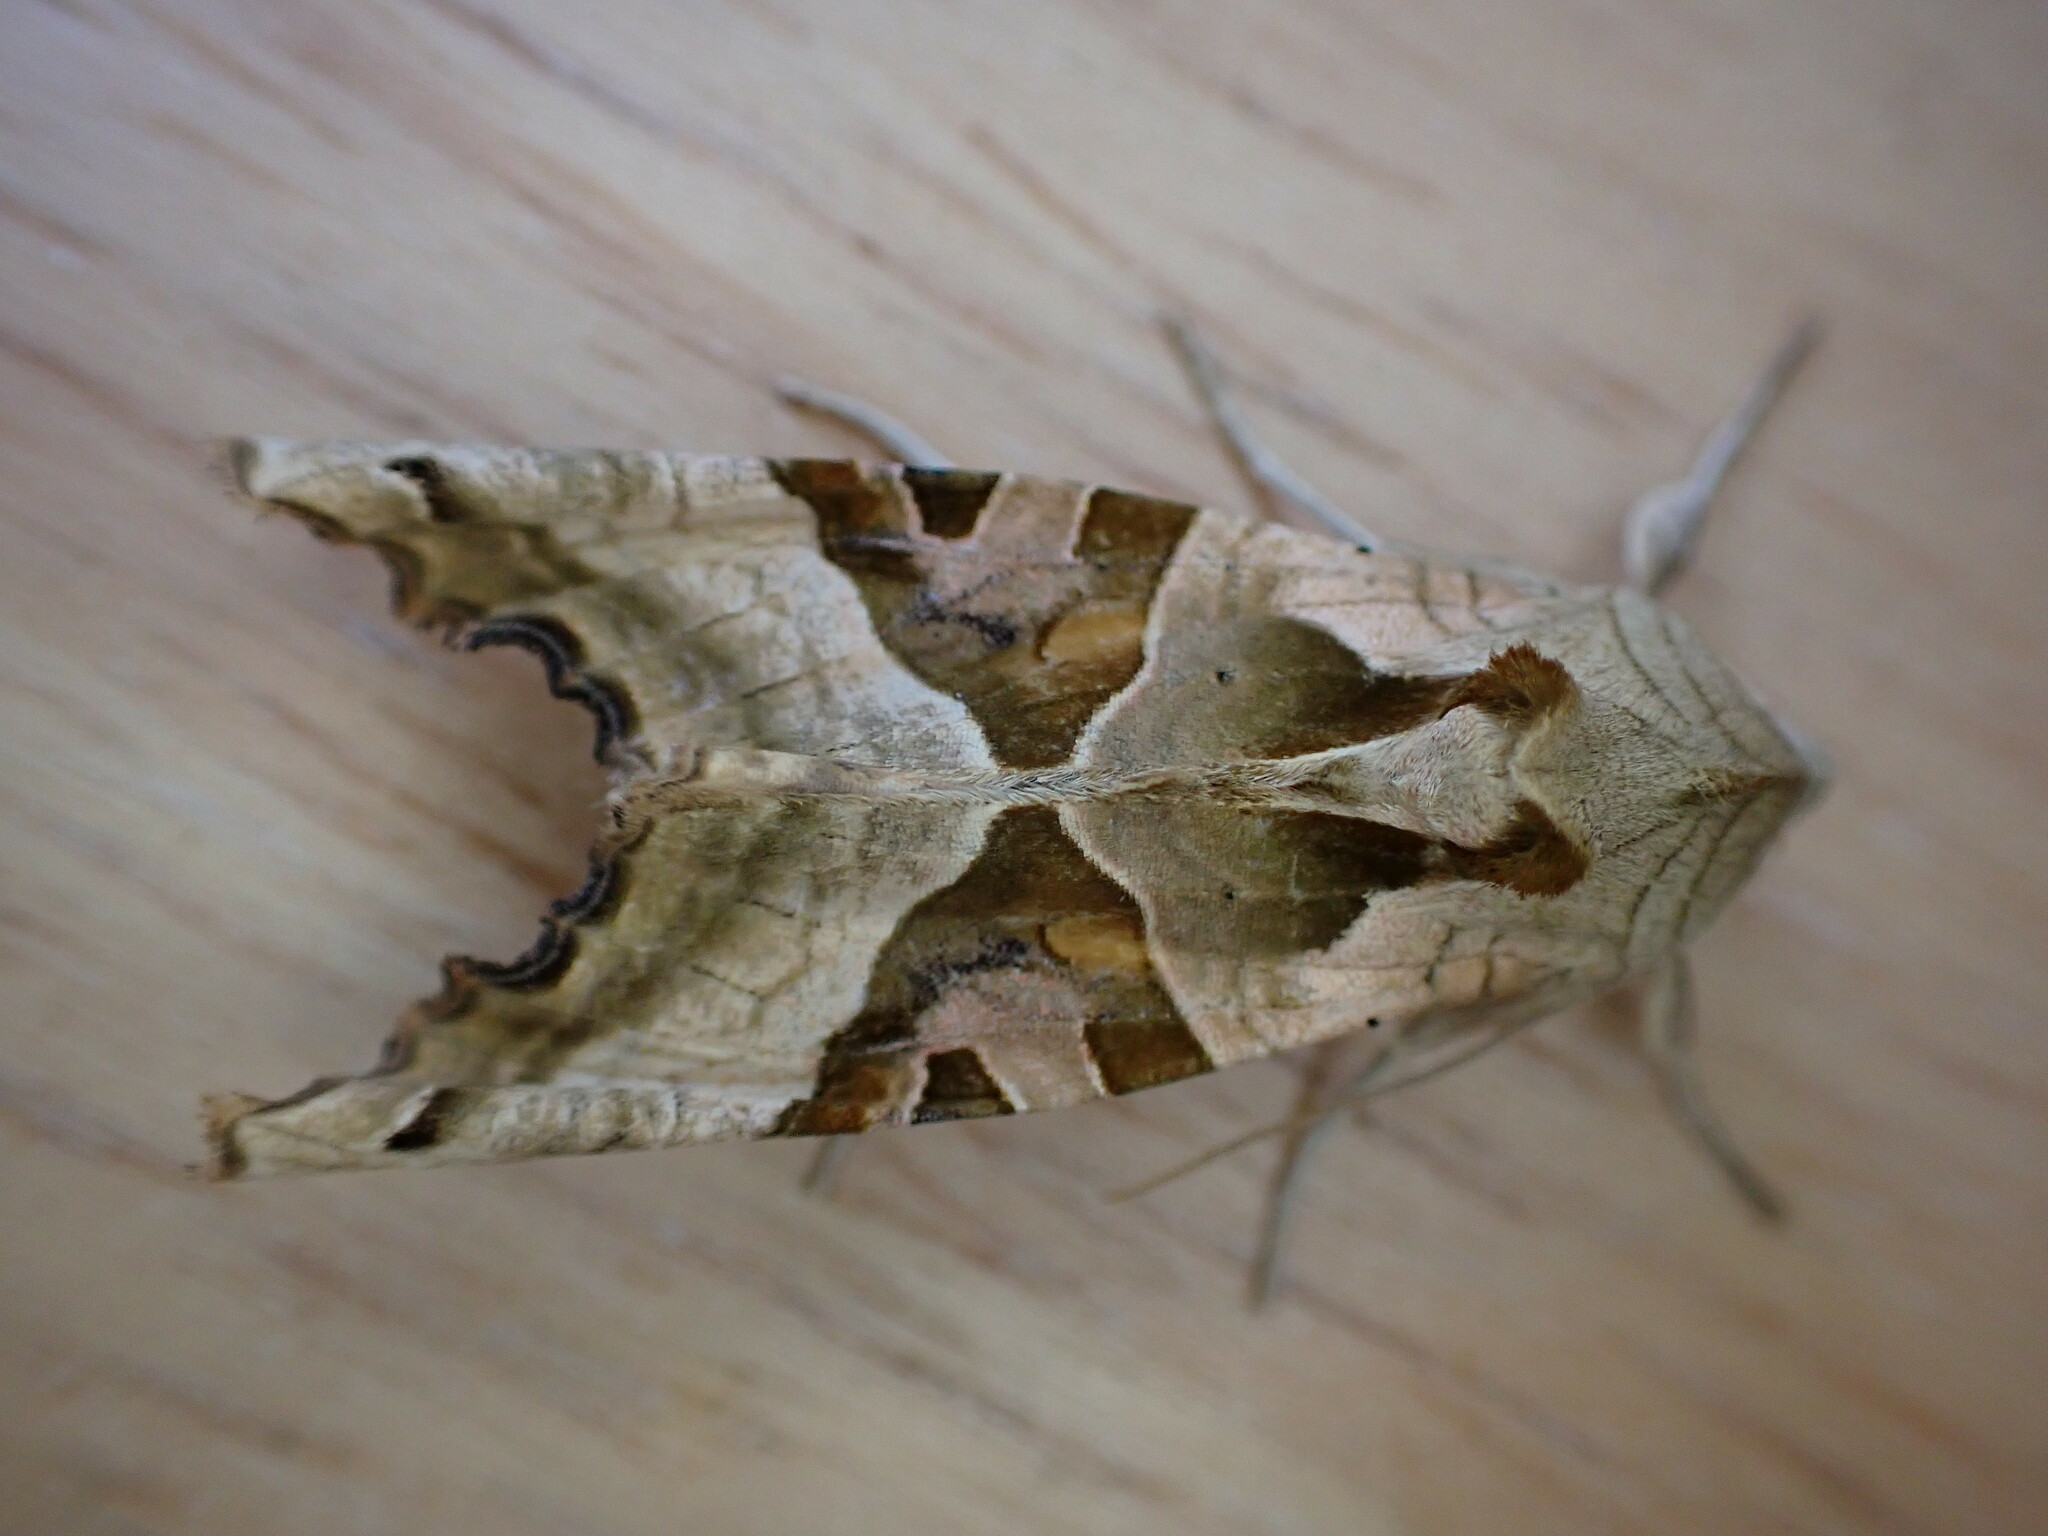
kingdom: Animalia
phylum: Arthropoda
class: Insecta
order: Lepidoptera
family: Noctuidae
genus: Phlogophora
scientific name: Phlogophora meticulosa
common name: Angle shades
